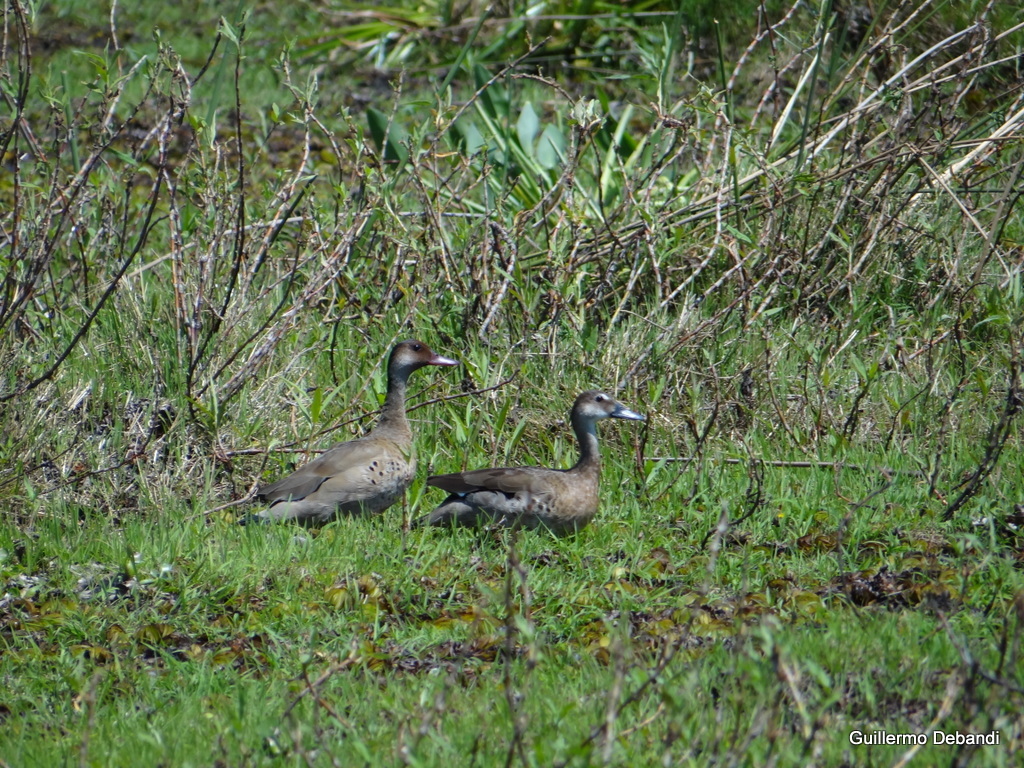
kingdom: Animalia
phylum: Chordata
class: Aves
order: Anseriformes
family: Anatidae
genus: Amazonetta
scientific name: Amazonetta brasiliensis
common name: Brazilian teal
